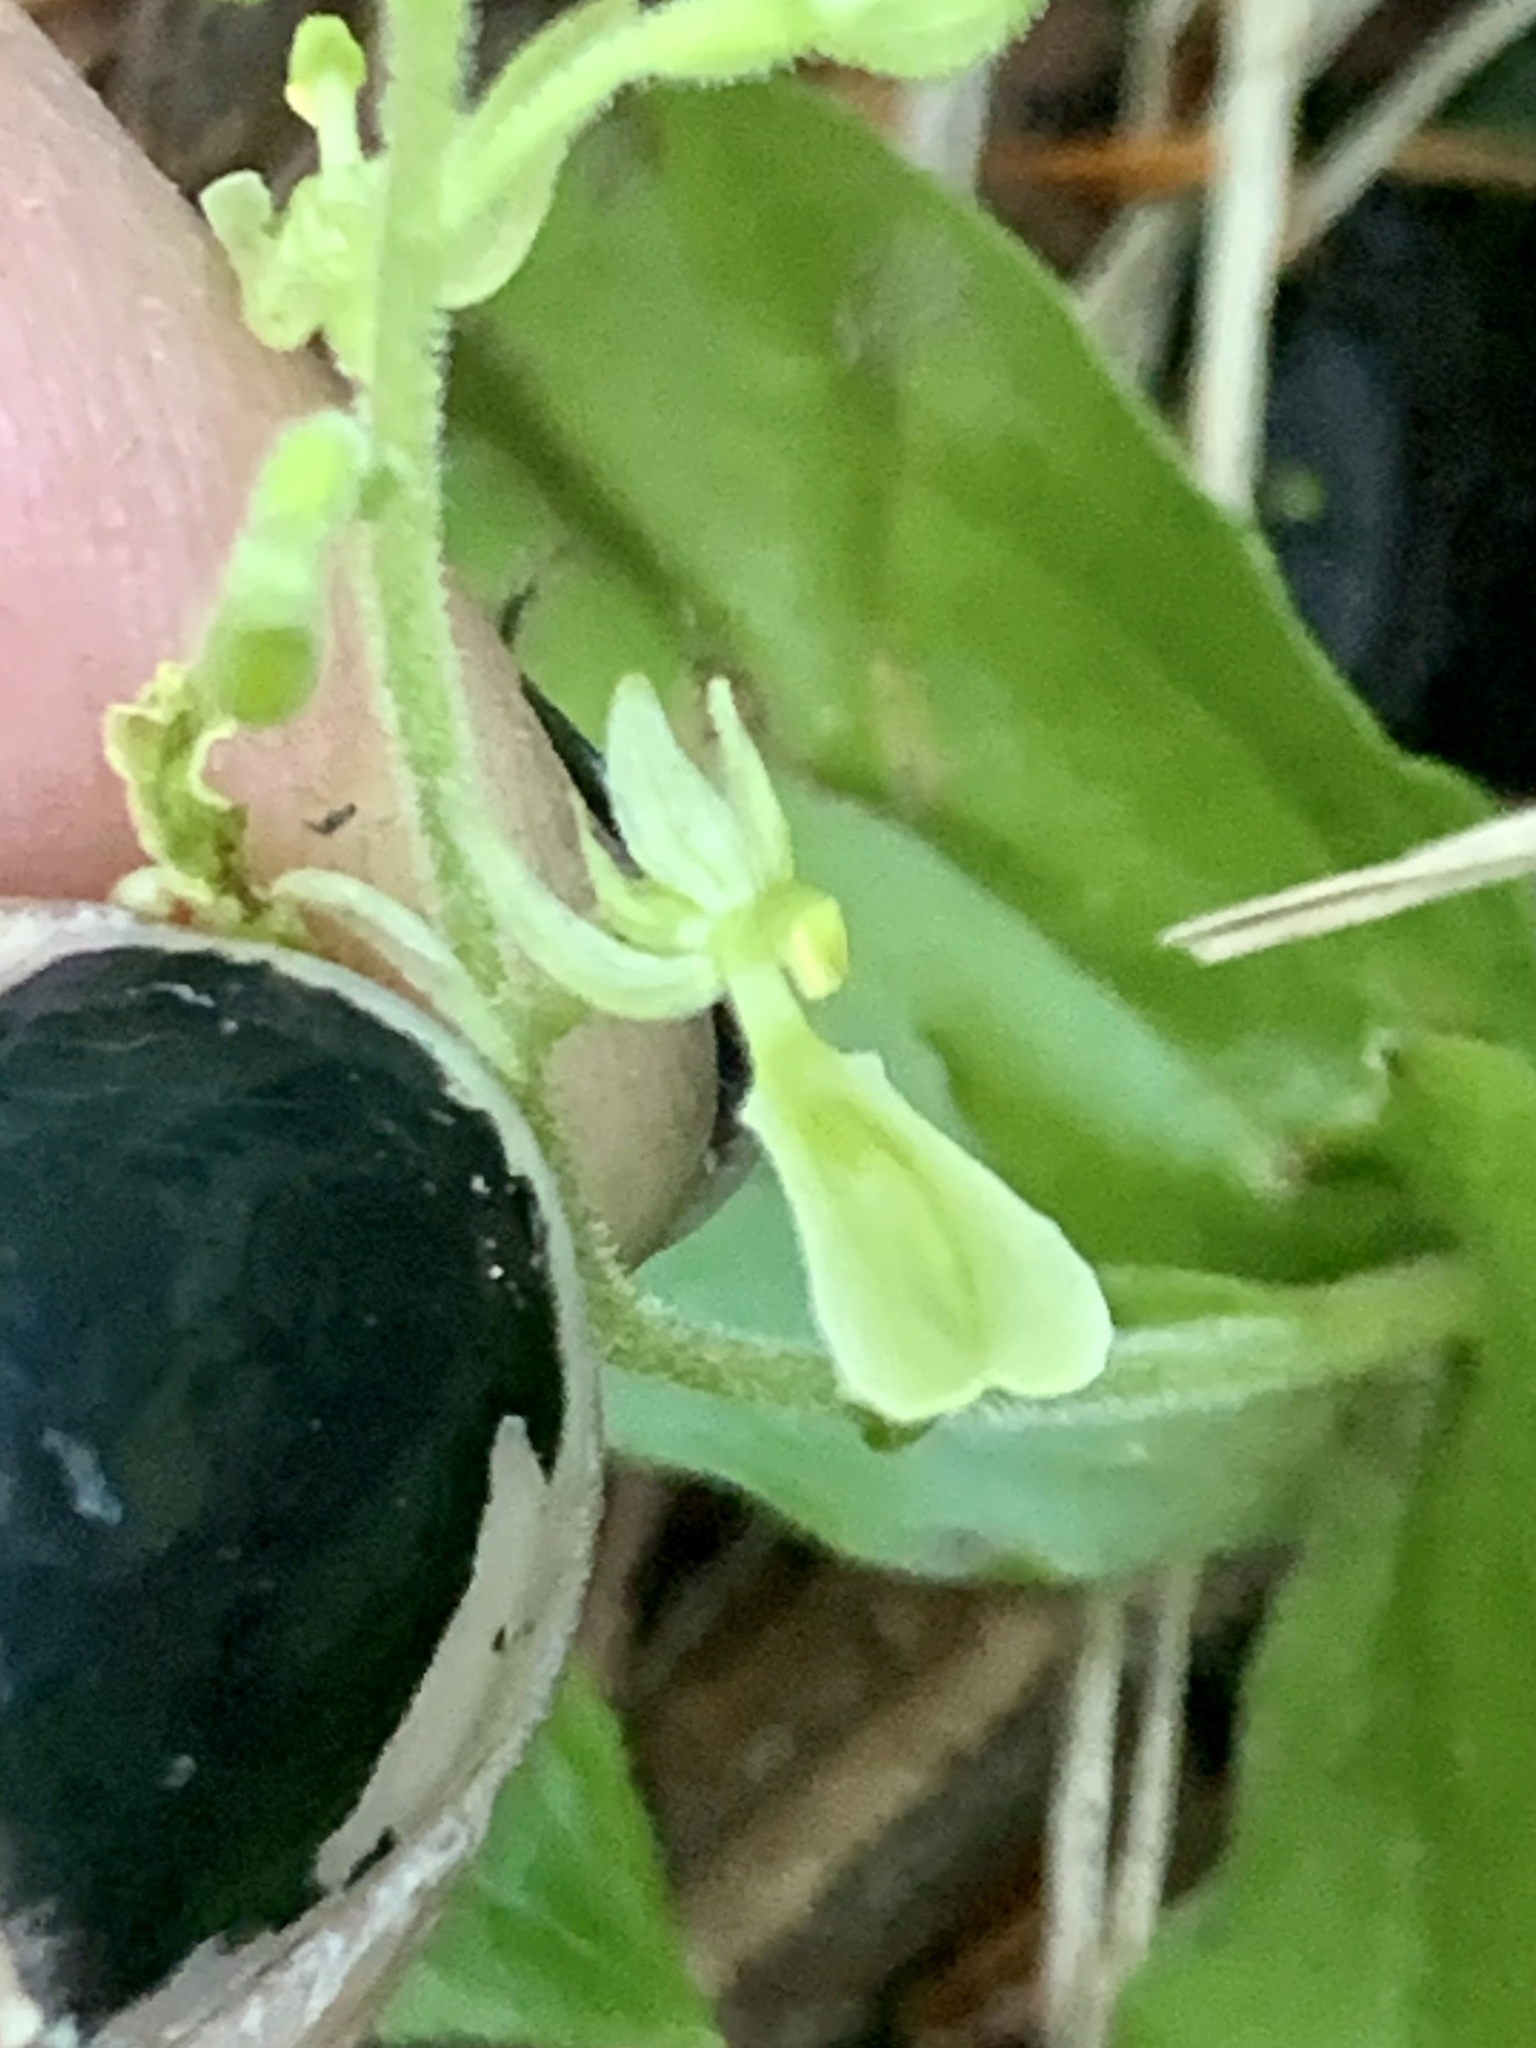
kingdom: Plantae
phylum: Tracheophyta
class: Liliopsida
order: Asparagales
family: Orchidaceae
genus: Neottia
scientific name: Neottia convallarioides
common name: Broadleaf twayblade
